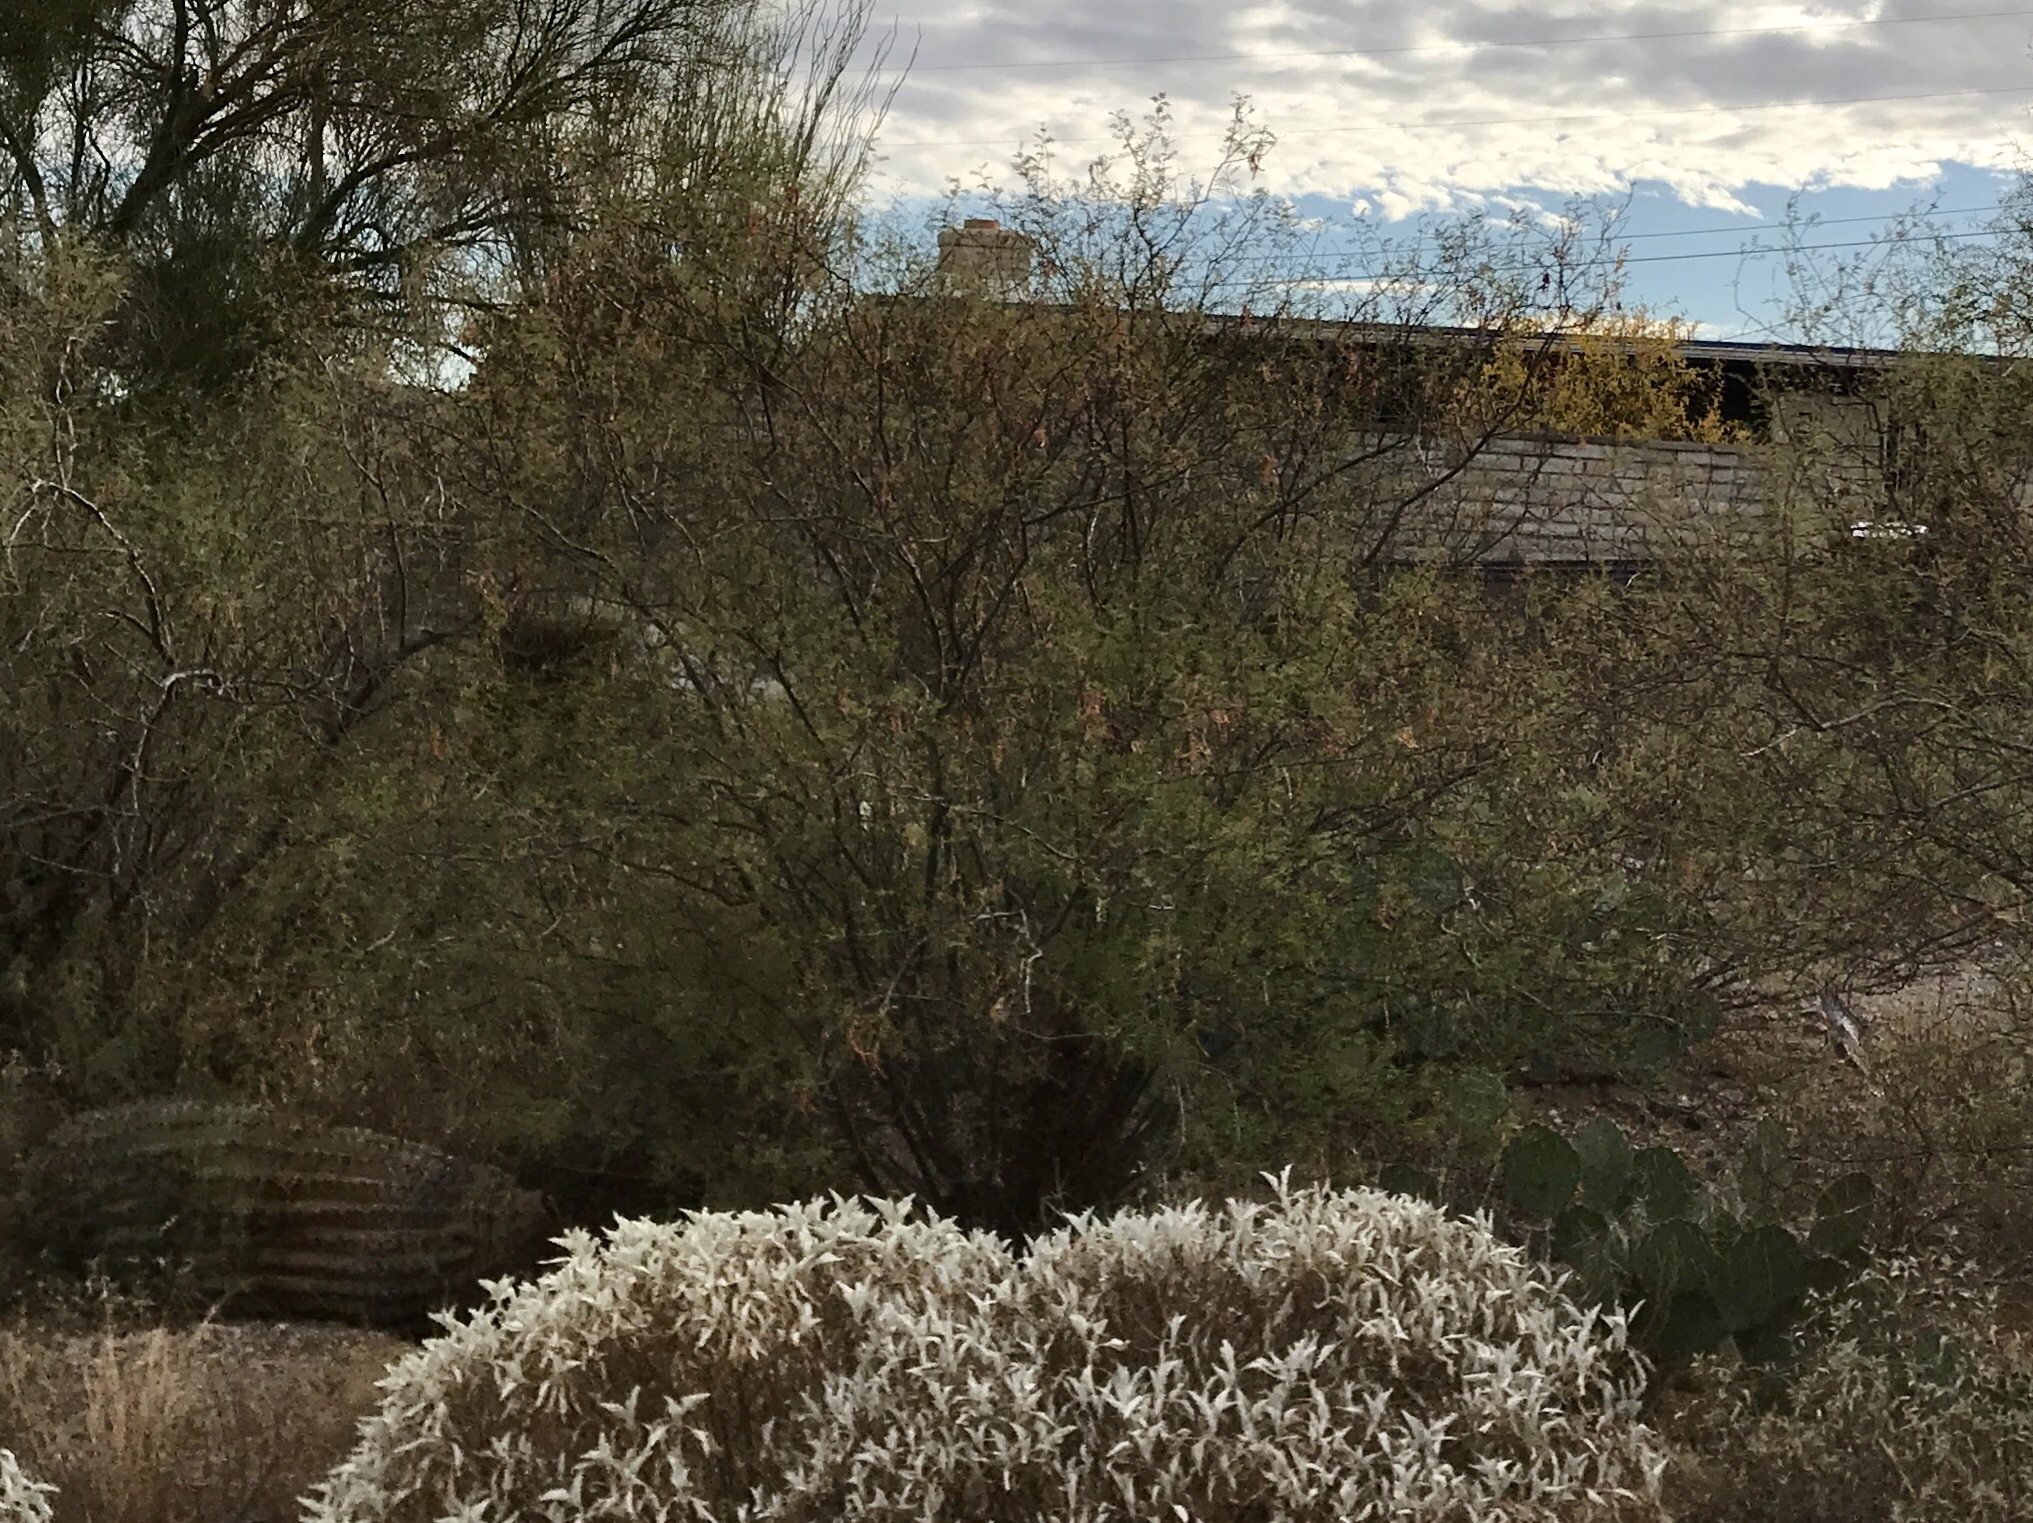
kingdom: Plantae
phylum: Tracheophyta
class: Magnoliopsida
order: Fabales
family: Fabaceae
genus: Vachellia
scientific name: Vachellia constricta
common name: Mescat acacia
